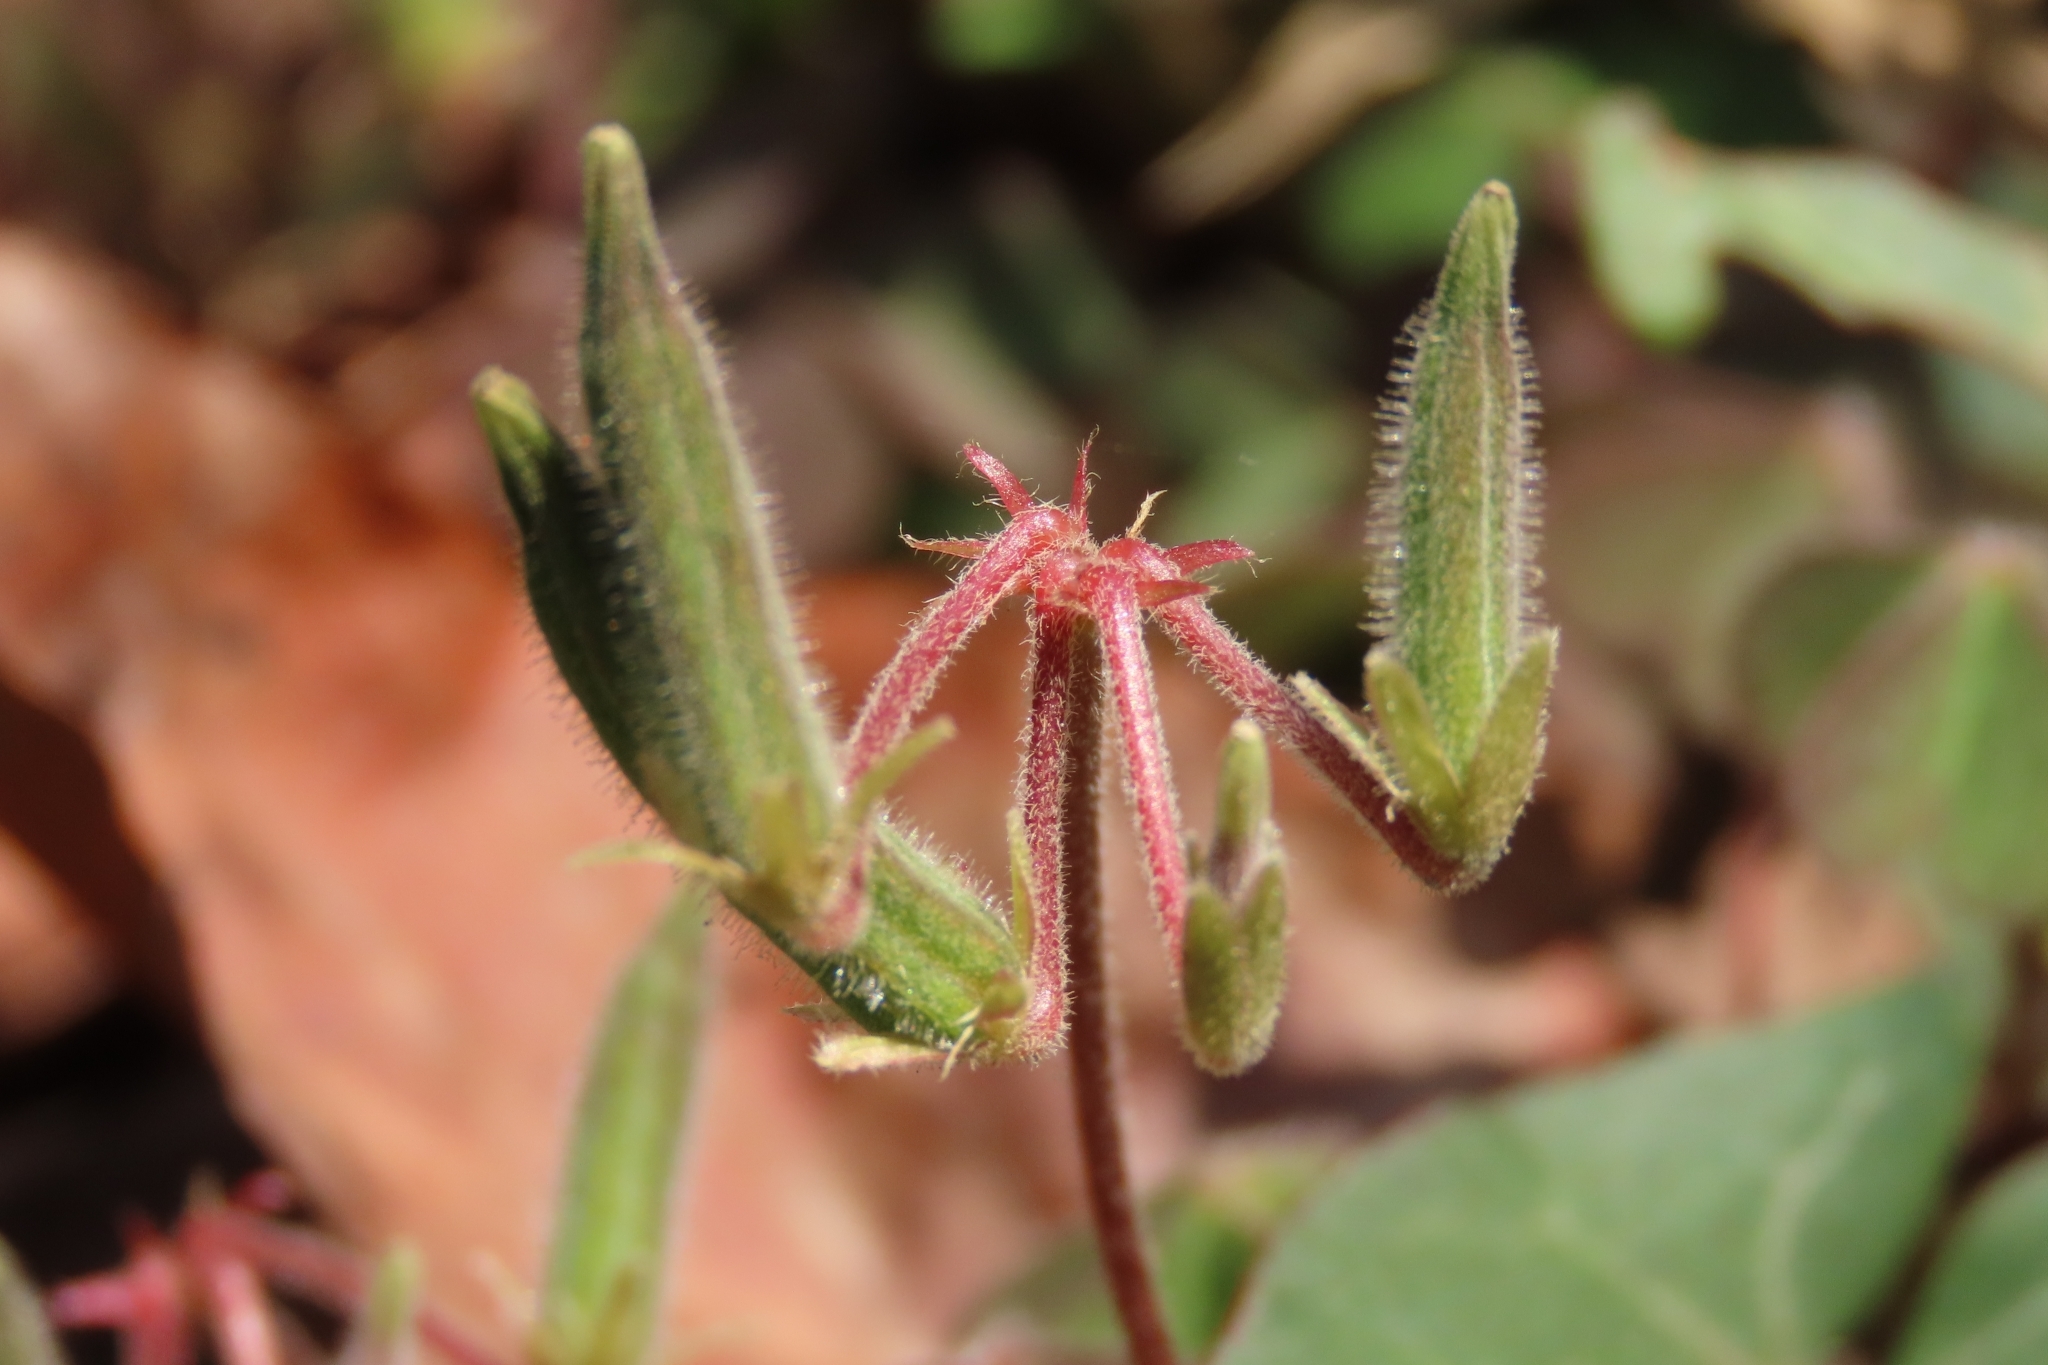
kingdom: Plantae
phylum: Tracheophyta
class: Magnoliopsida
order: Oxalidales
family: Oxalidaceae
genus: Oxalis
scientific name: Oxalis corniculata
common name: Procumbent yellow-sorrel
